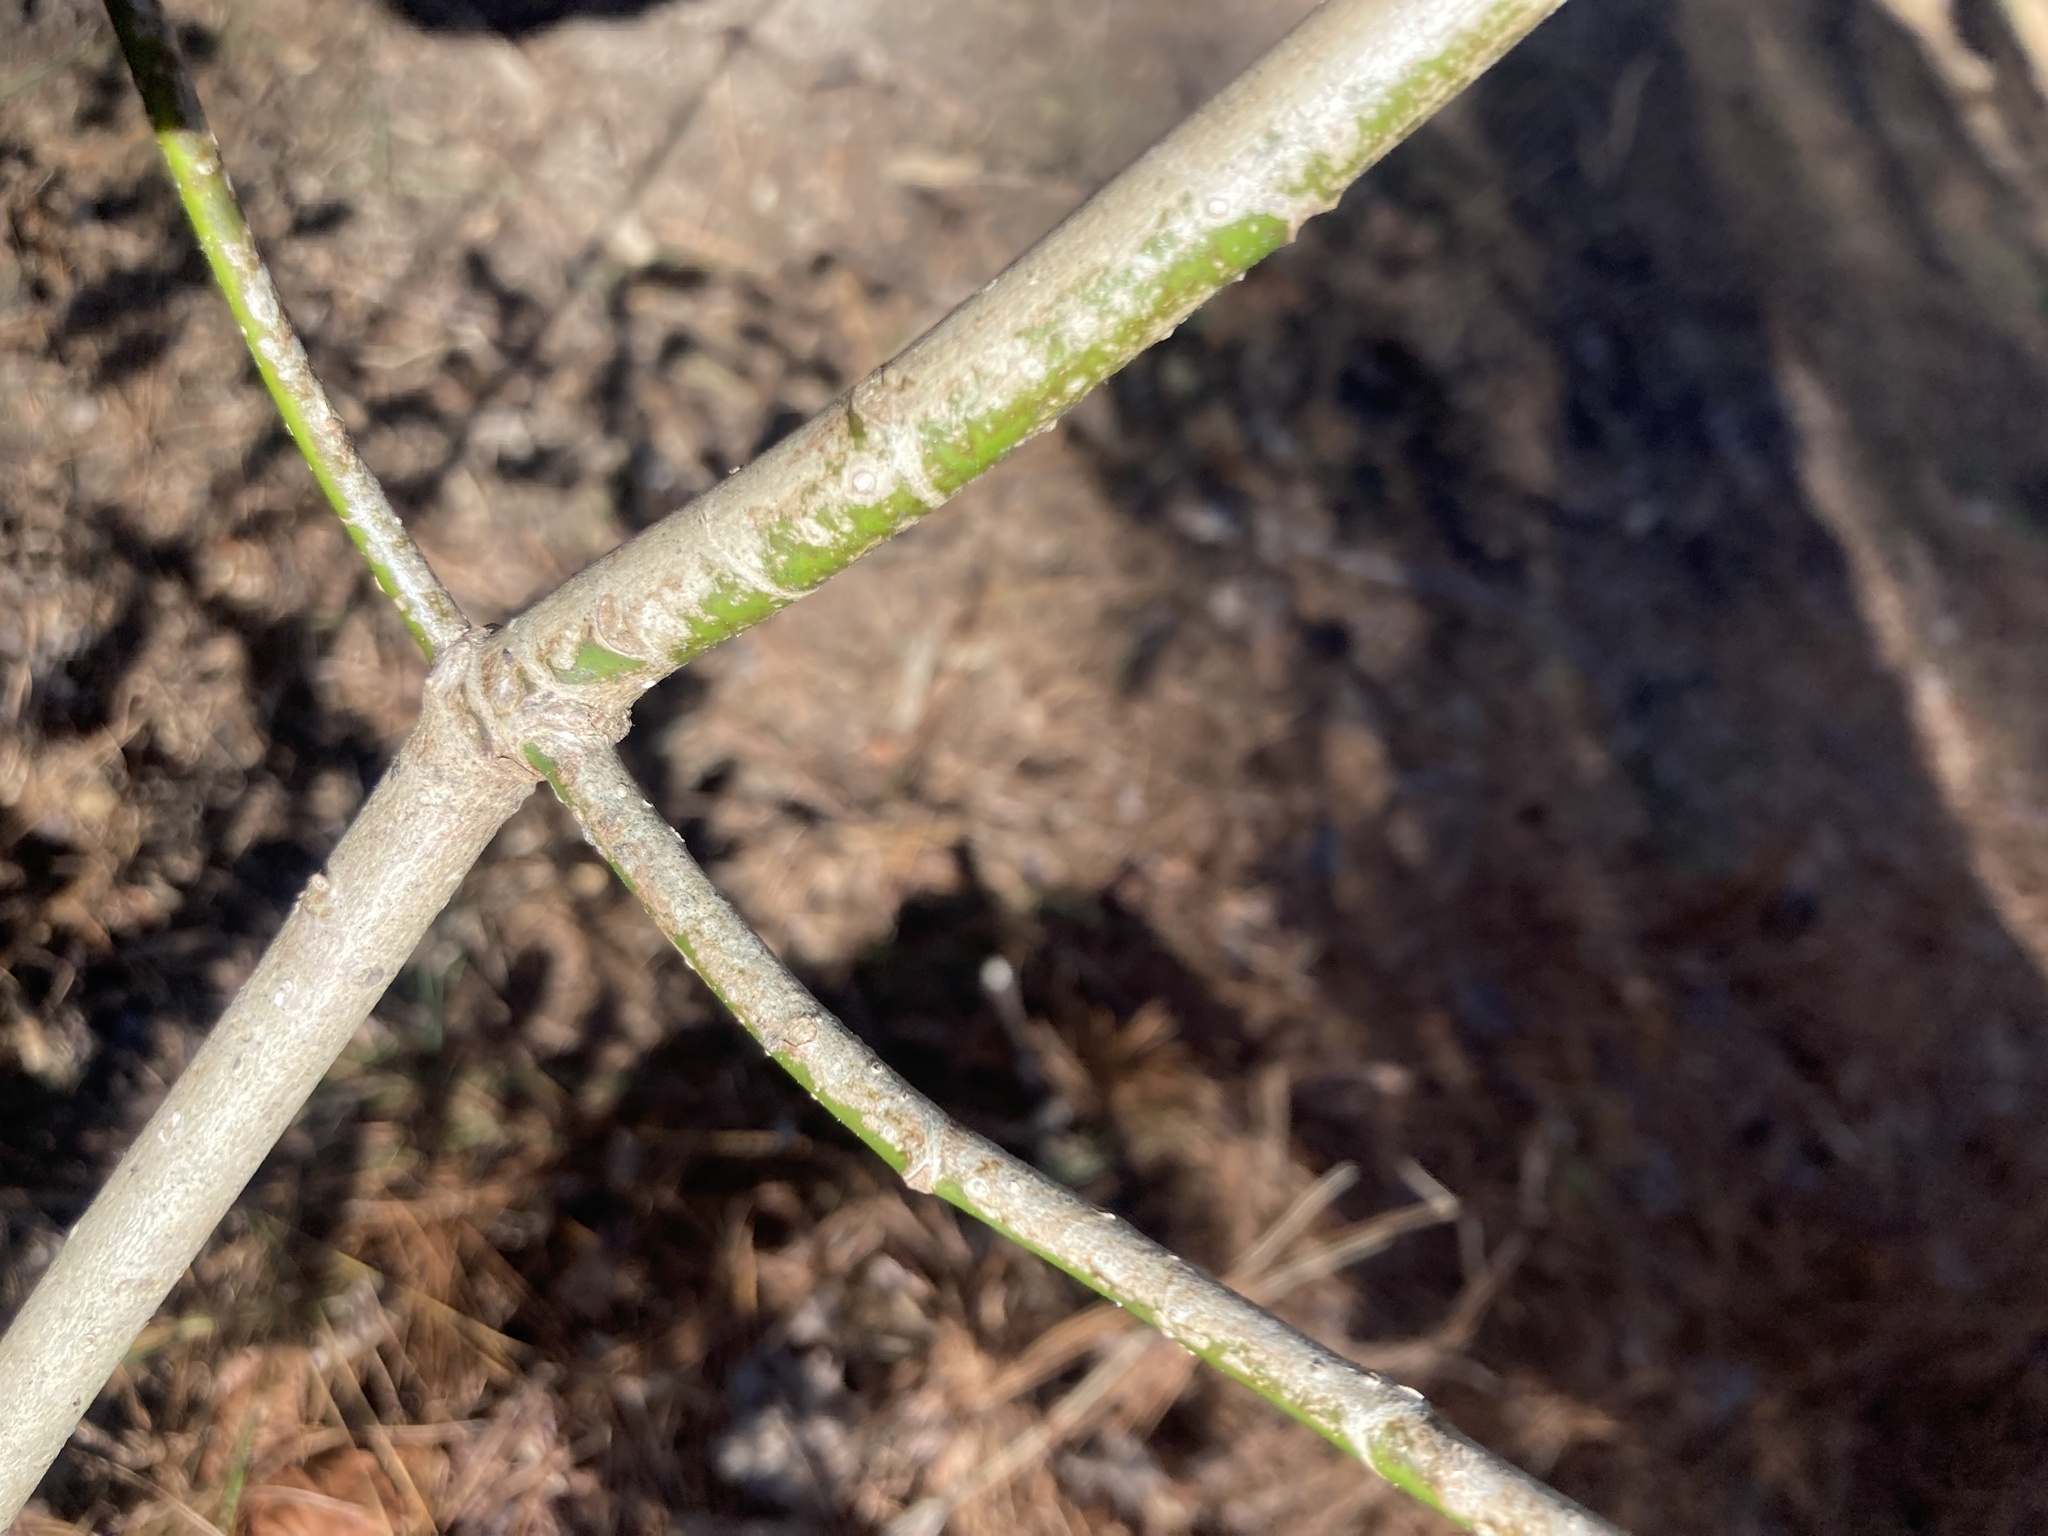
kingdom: Plantae
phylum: Tracheophyta
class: Magnoliopsida
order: Magnoliales
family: Magnoliaceae
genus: Magnolia
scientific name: Magnolia virginiana
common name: Swamp bay
